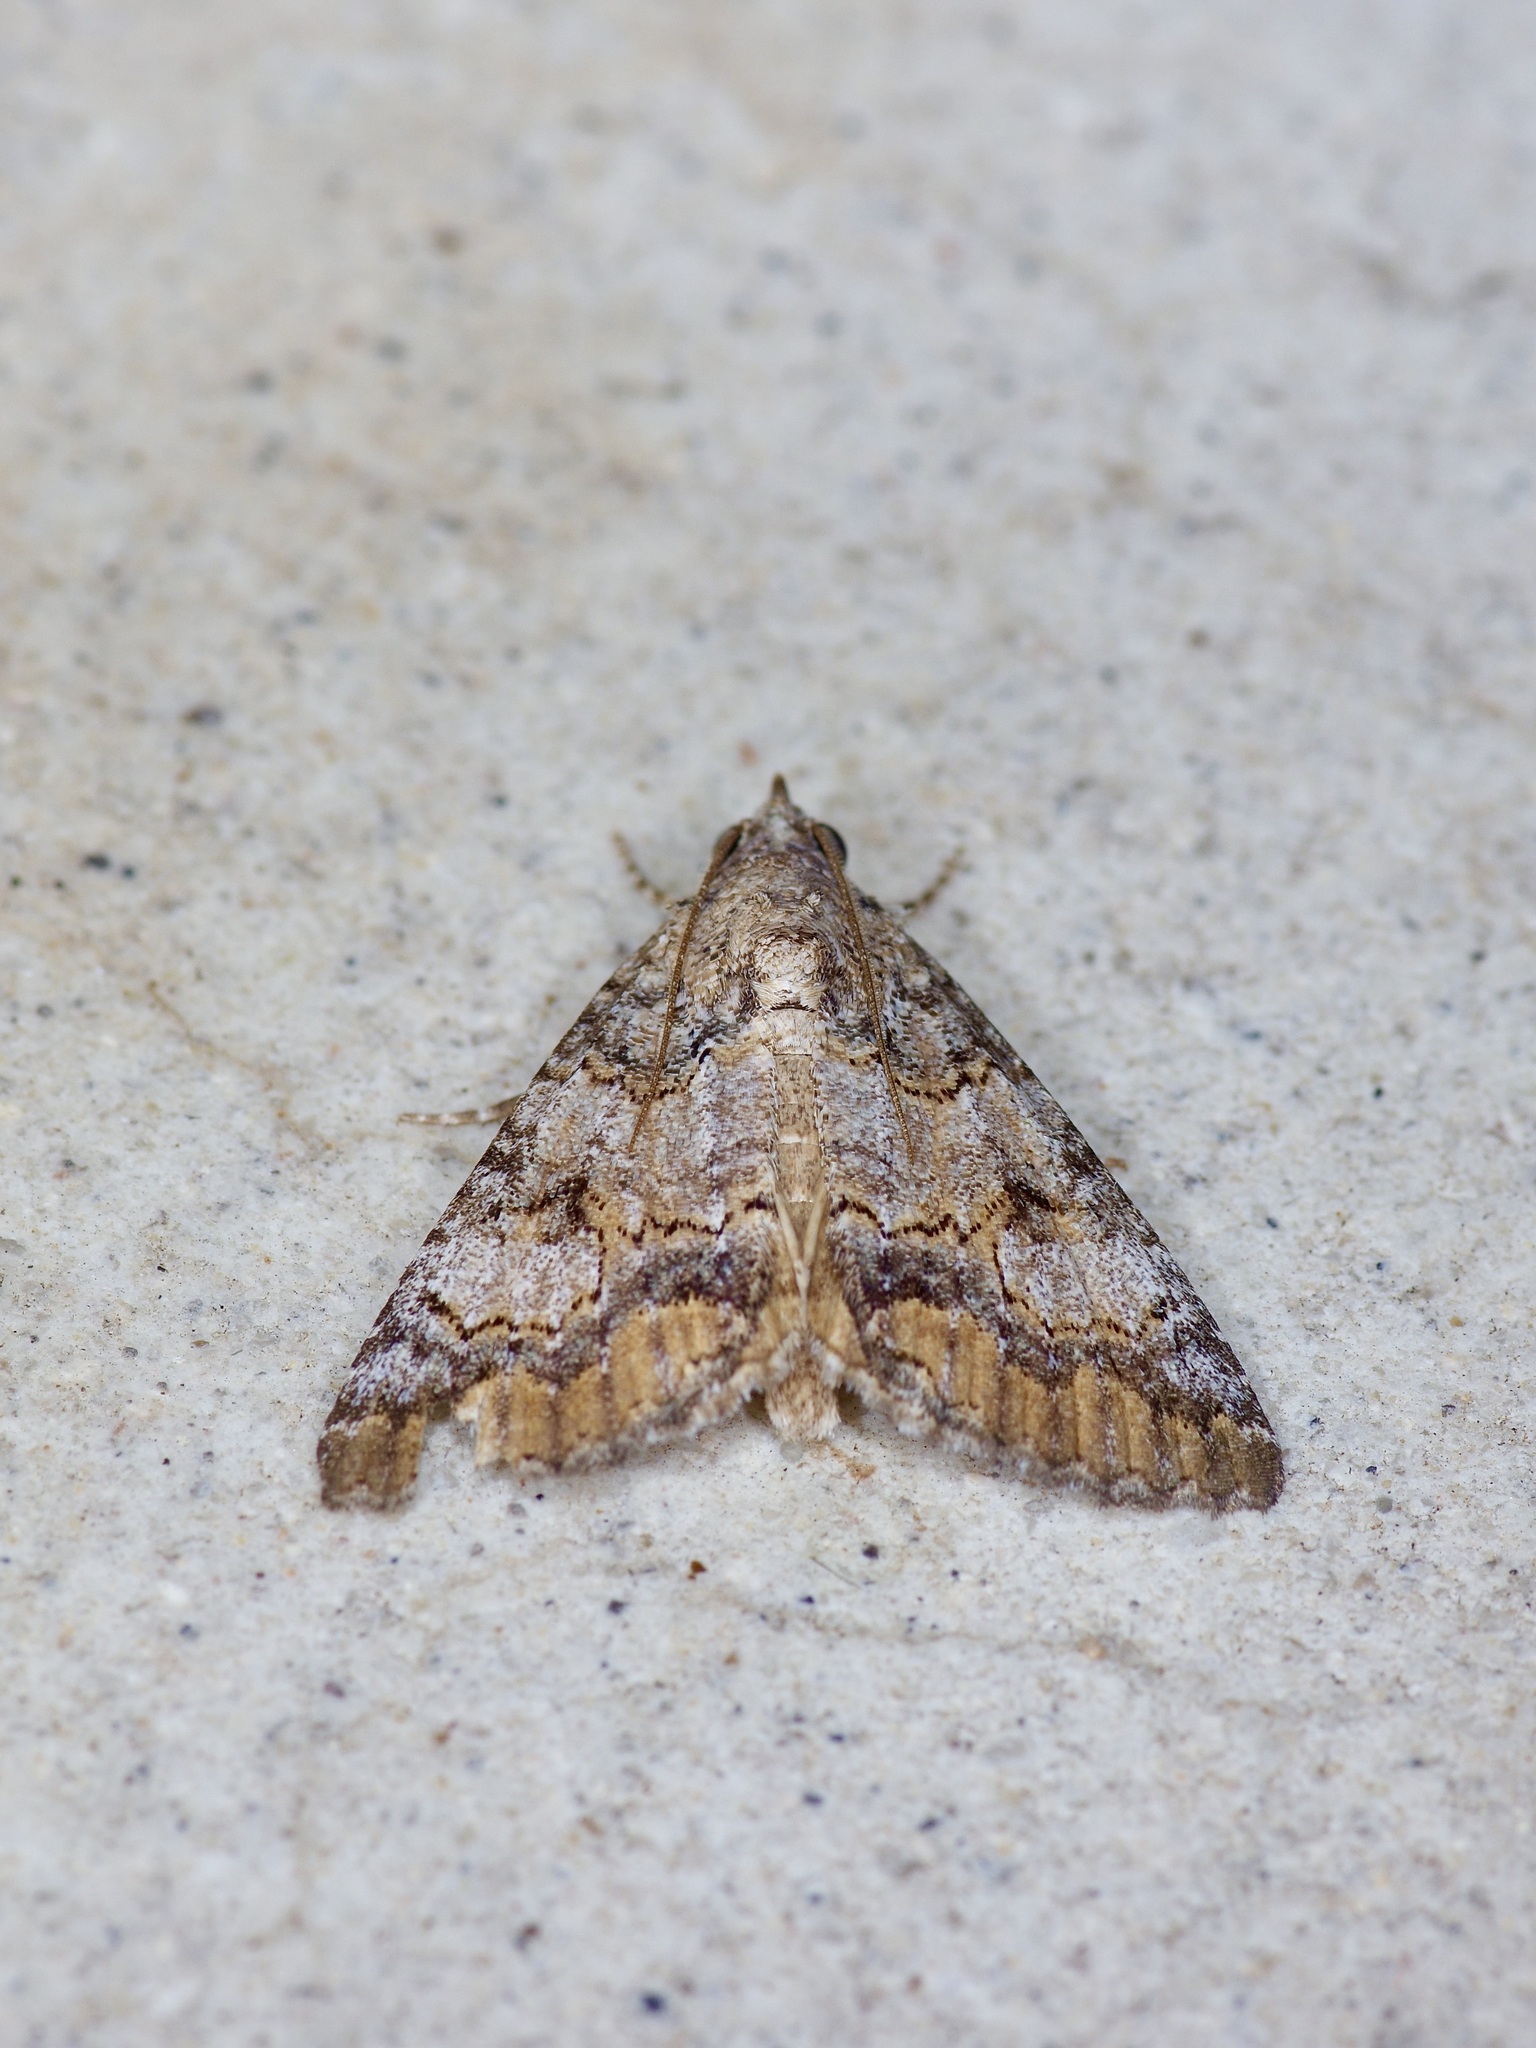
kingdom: Animalia
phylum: Arthropoda
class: Insecta
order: Lepidoptera
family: Erebidae
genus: Eubolina
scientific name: Eubolina impartialis
